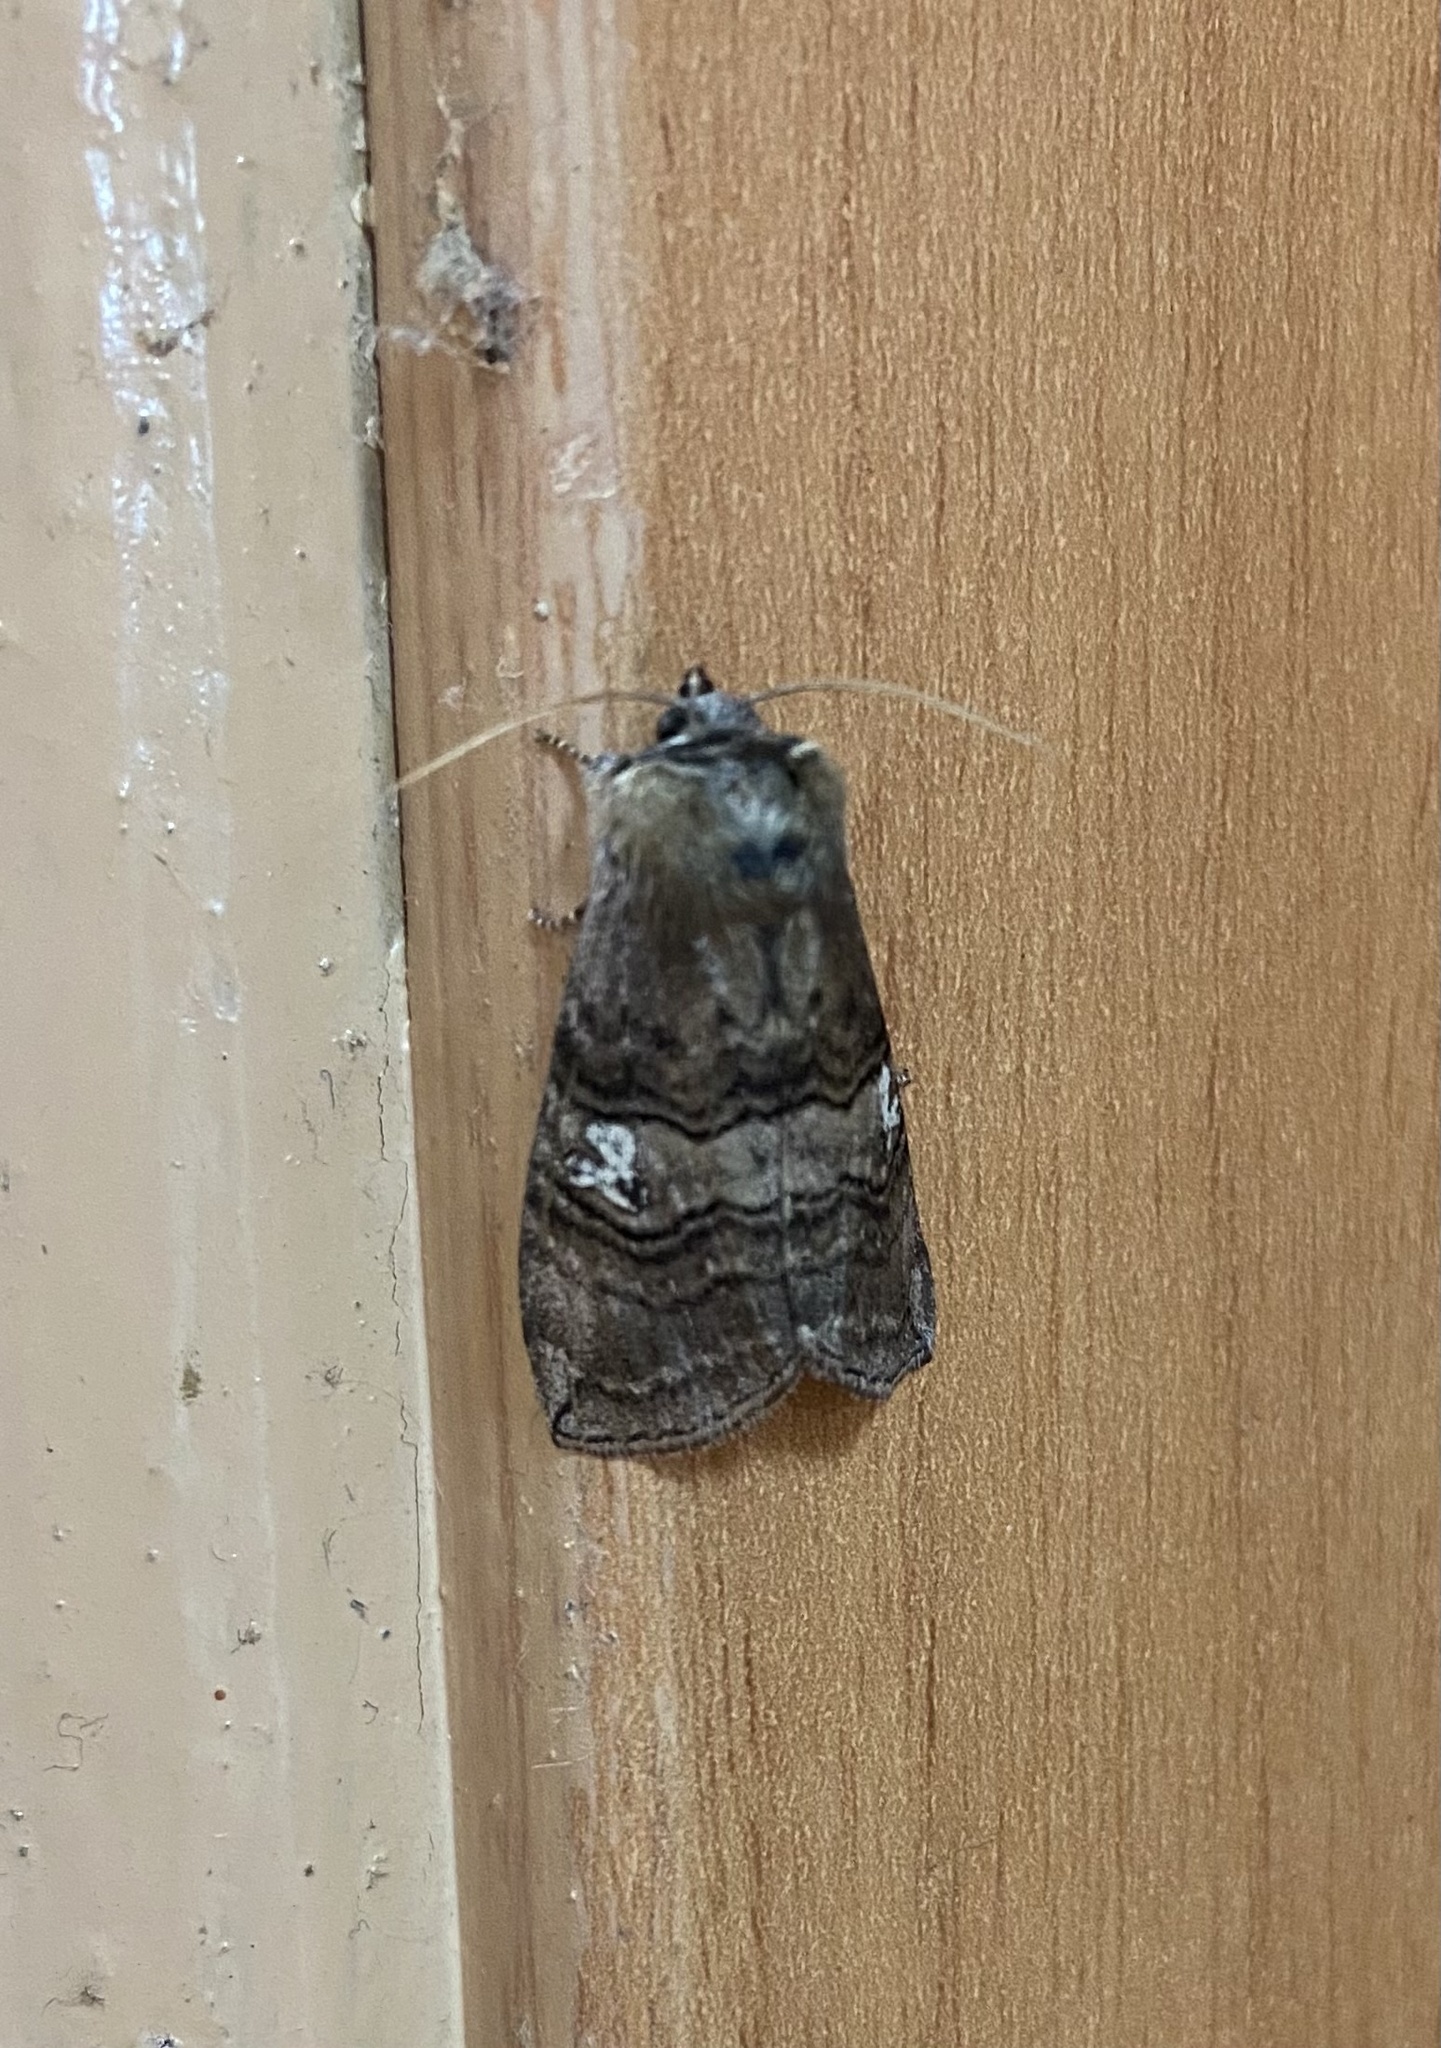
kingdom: Animalia
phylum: Arthropoda
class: Insecta
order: Lepidoptera
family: Drepanidae
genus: Tethea
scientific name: Tethea ocularis
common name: Figure of eighty
